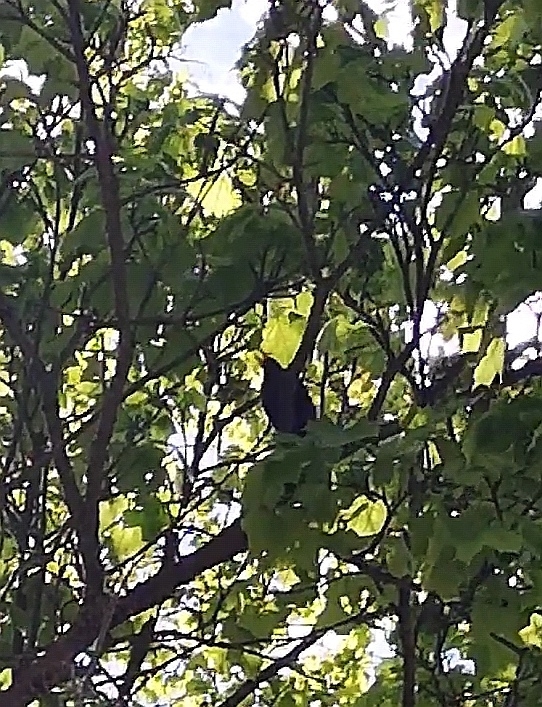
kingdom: Animalia
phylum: Chordata
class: Aves
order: Passeriformes
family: Turdidae
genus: Turdus
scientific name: Turdus merula
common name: Common blackbird
